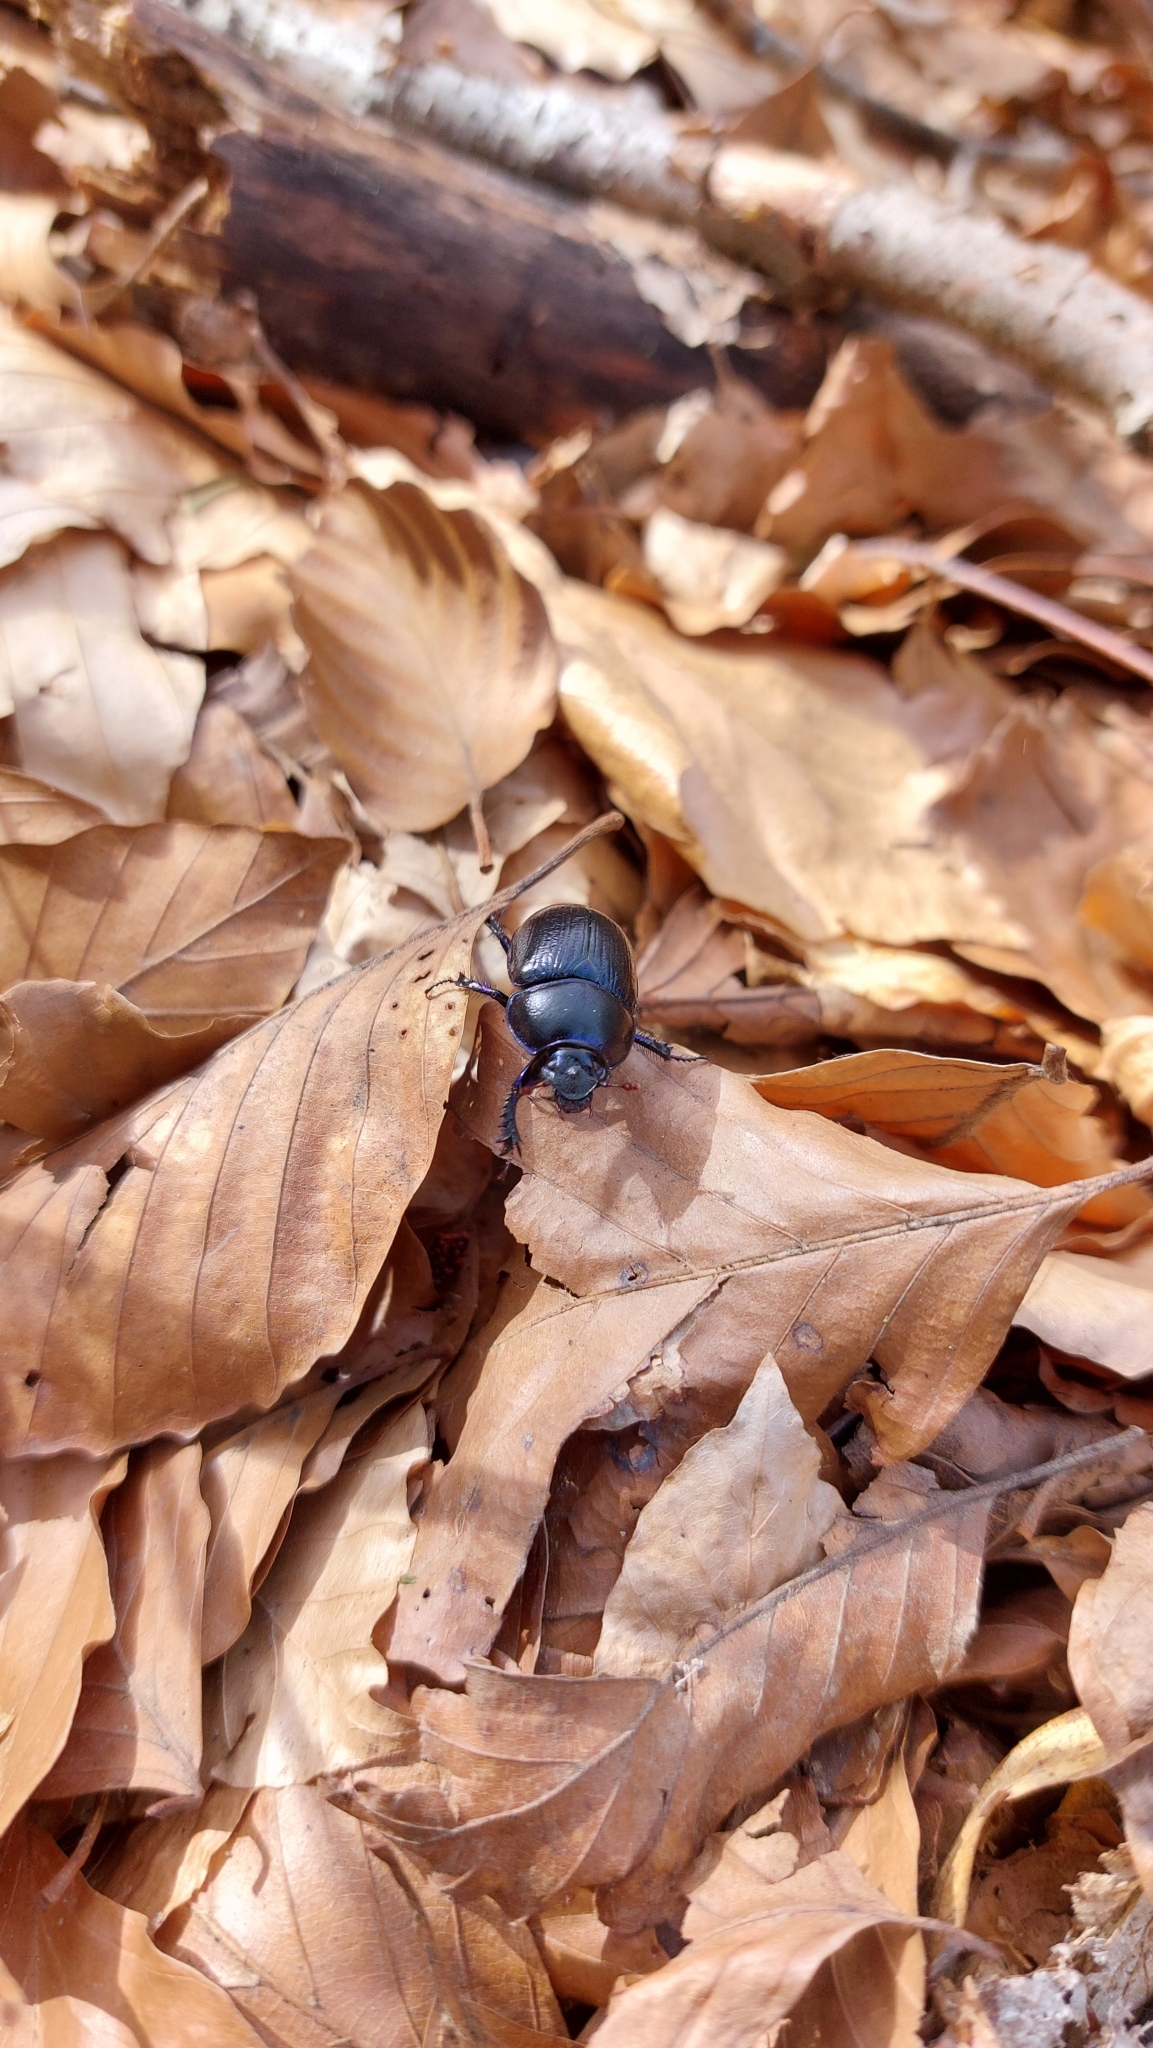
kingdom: Animalia
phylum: Arthropoda
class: Insecta
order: Coleoptera
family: Geotrupidae
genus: Anoplotrupes
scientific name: Anoplotrupes stercorosus
